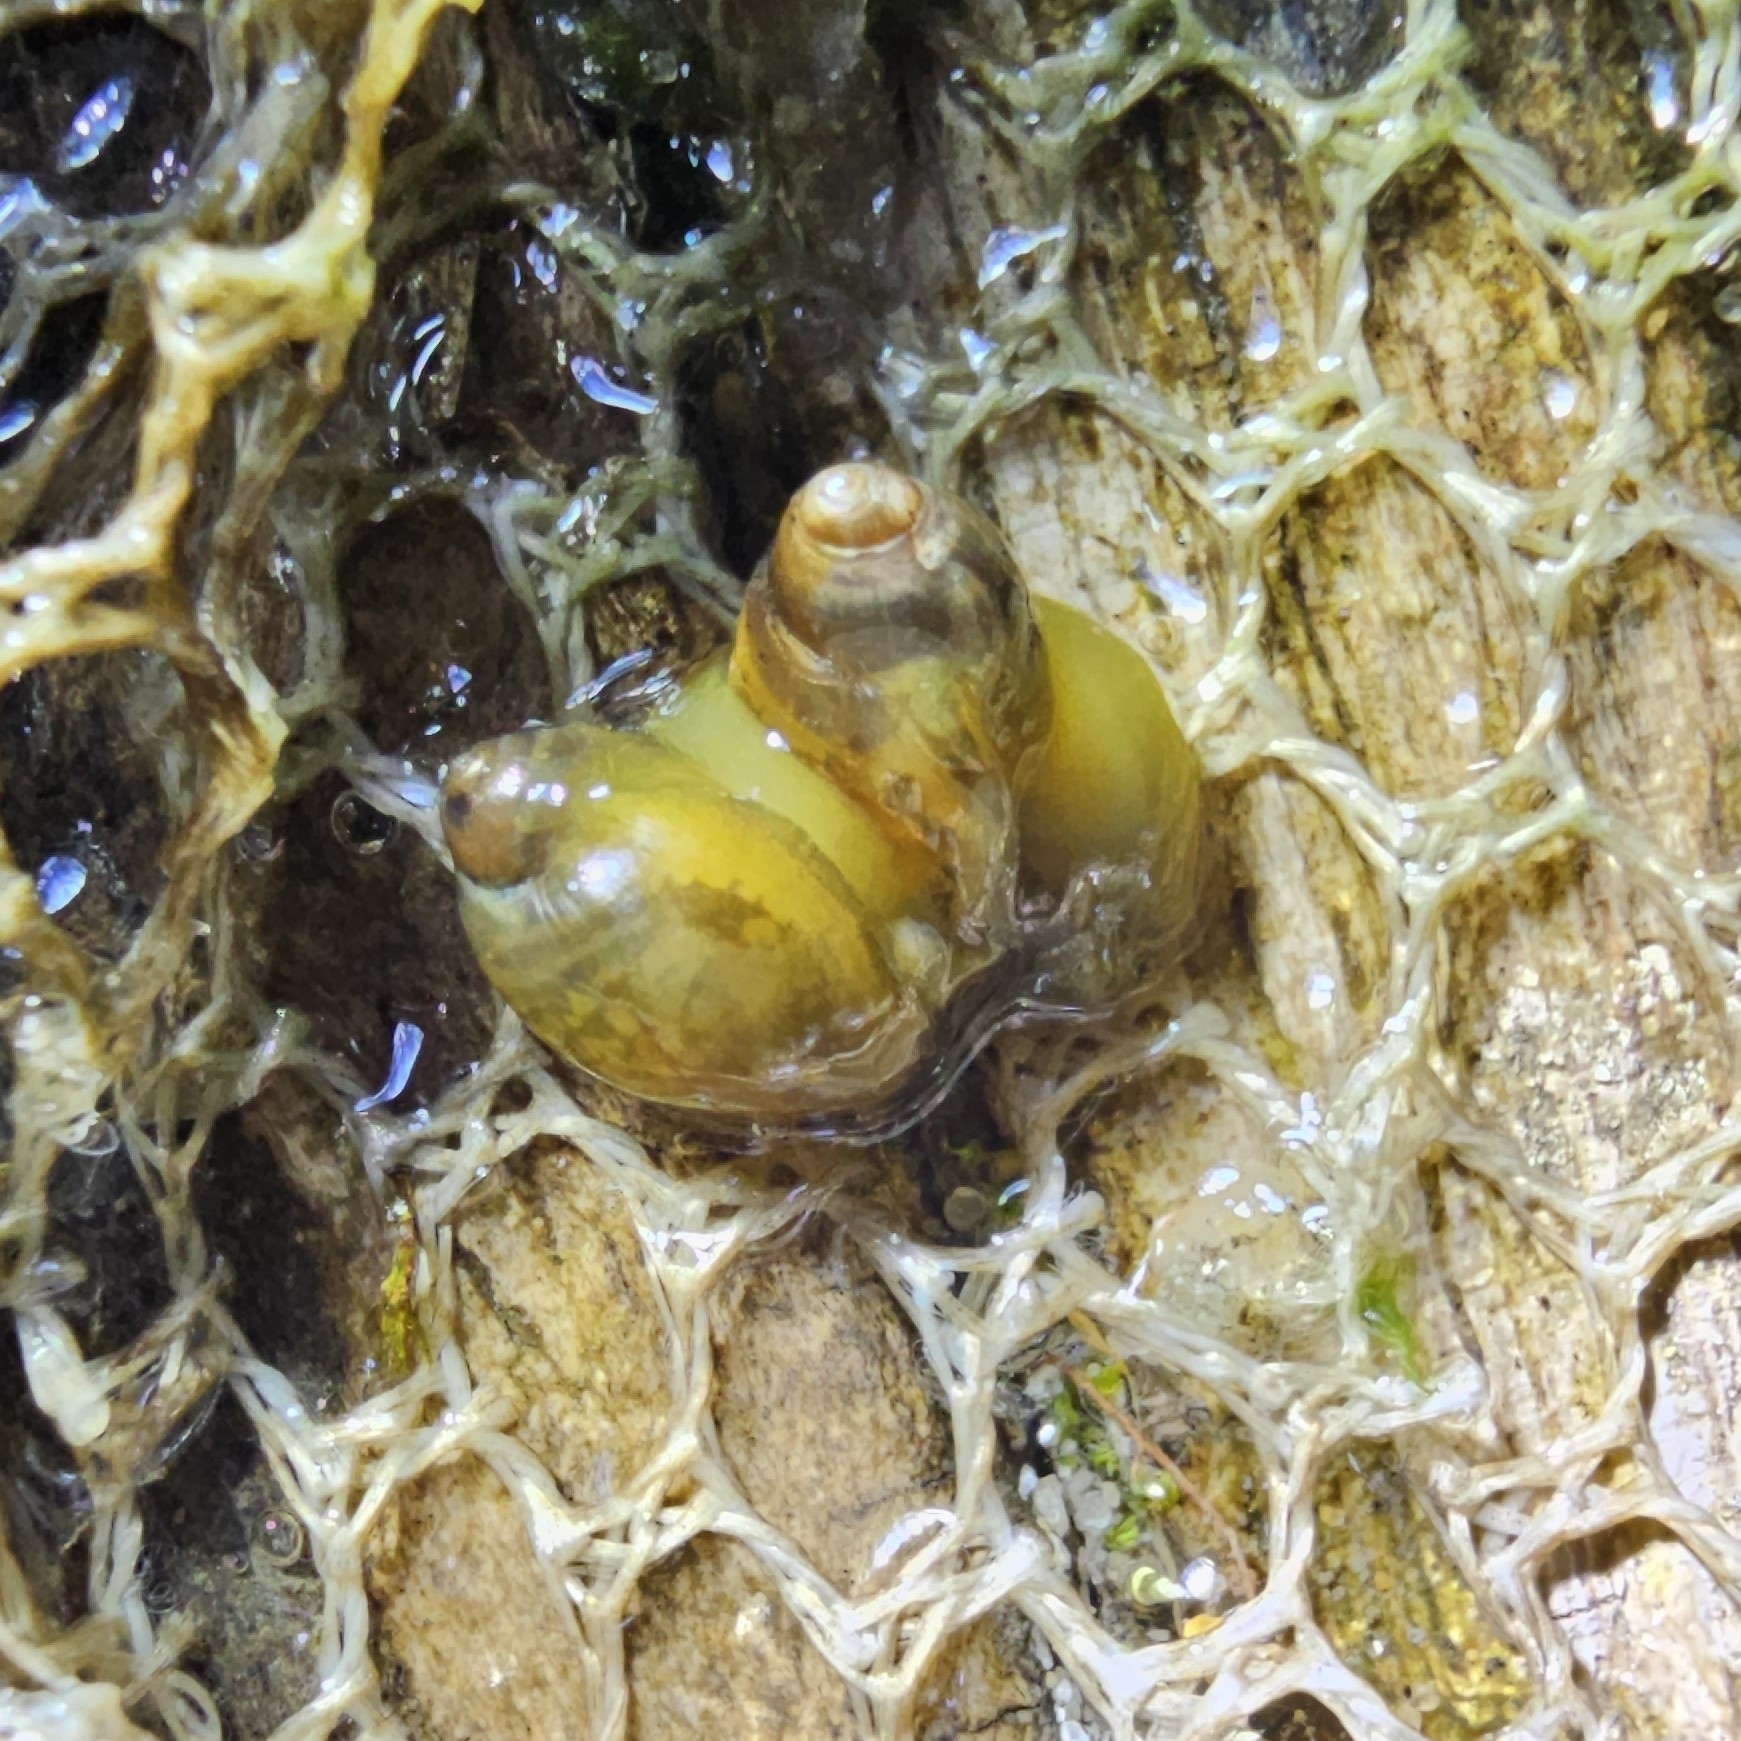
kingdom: Animalia
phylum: Mollusca
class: Gastropoda
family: Physidae
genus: Physella
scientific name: Physella acuta
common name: European physa
